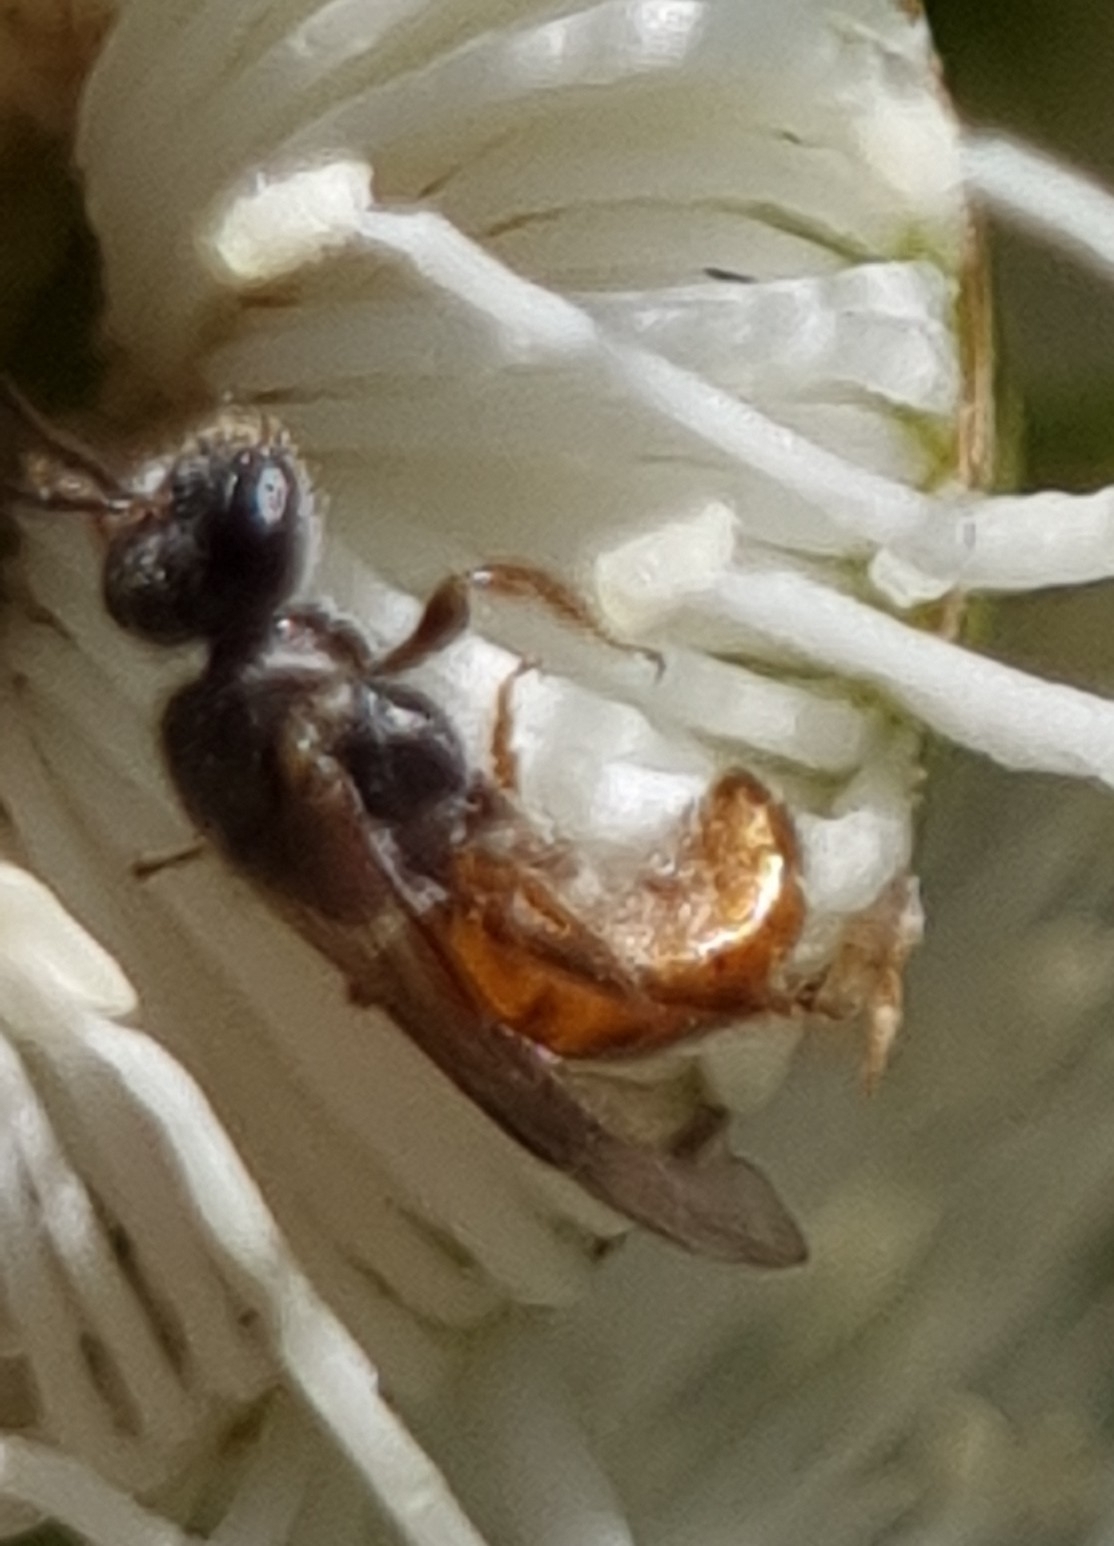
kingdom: Animalia
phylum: Arthropoda
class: Insecta
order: Hymenoptera
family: Halictidae
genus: Lasioglossum
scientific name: Lasioglossum
